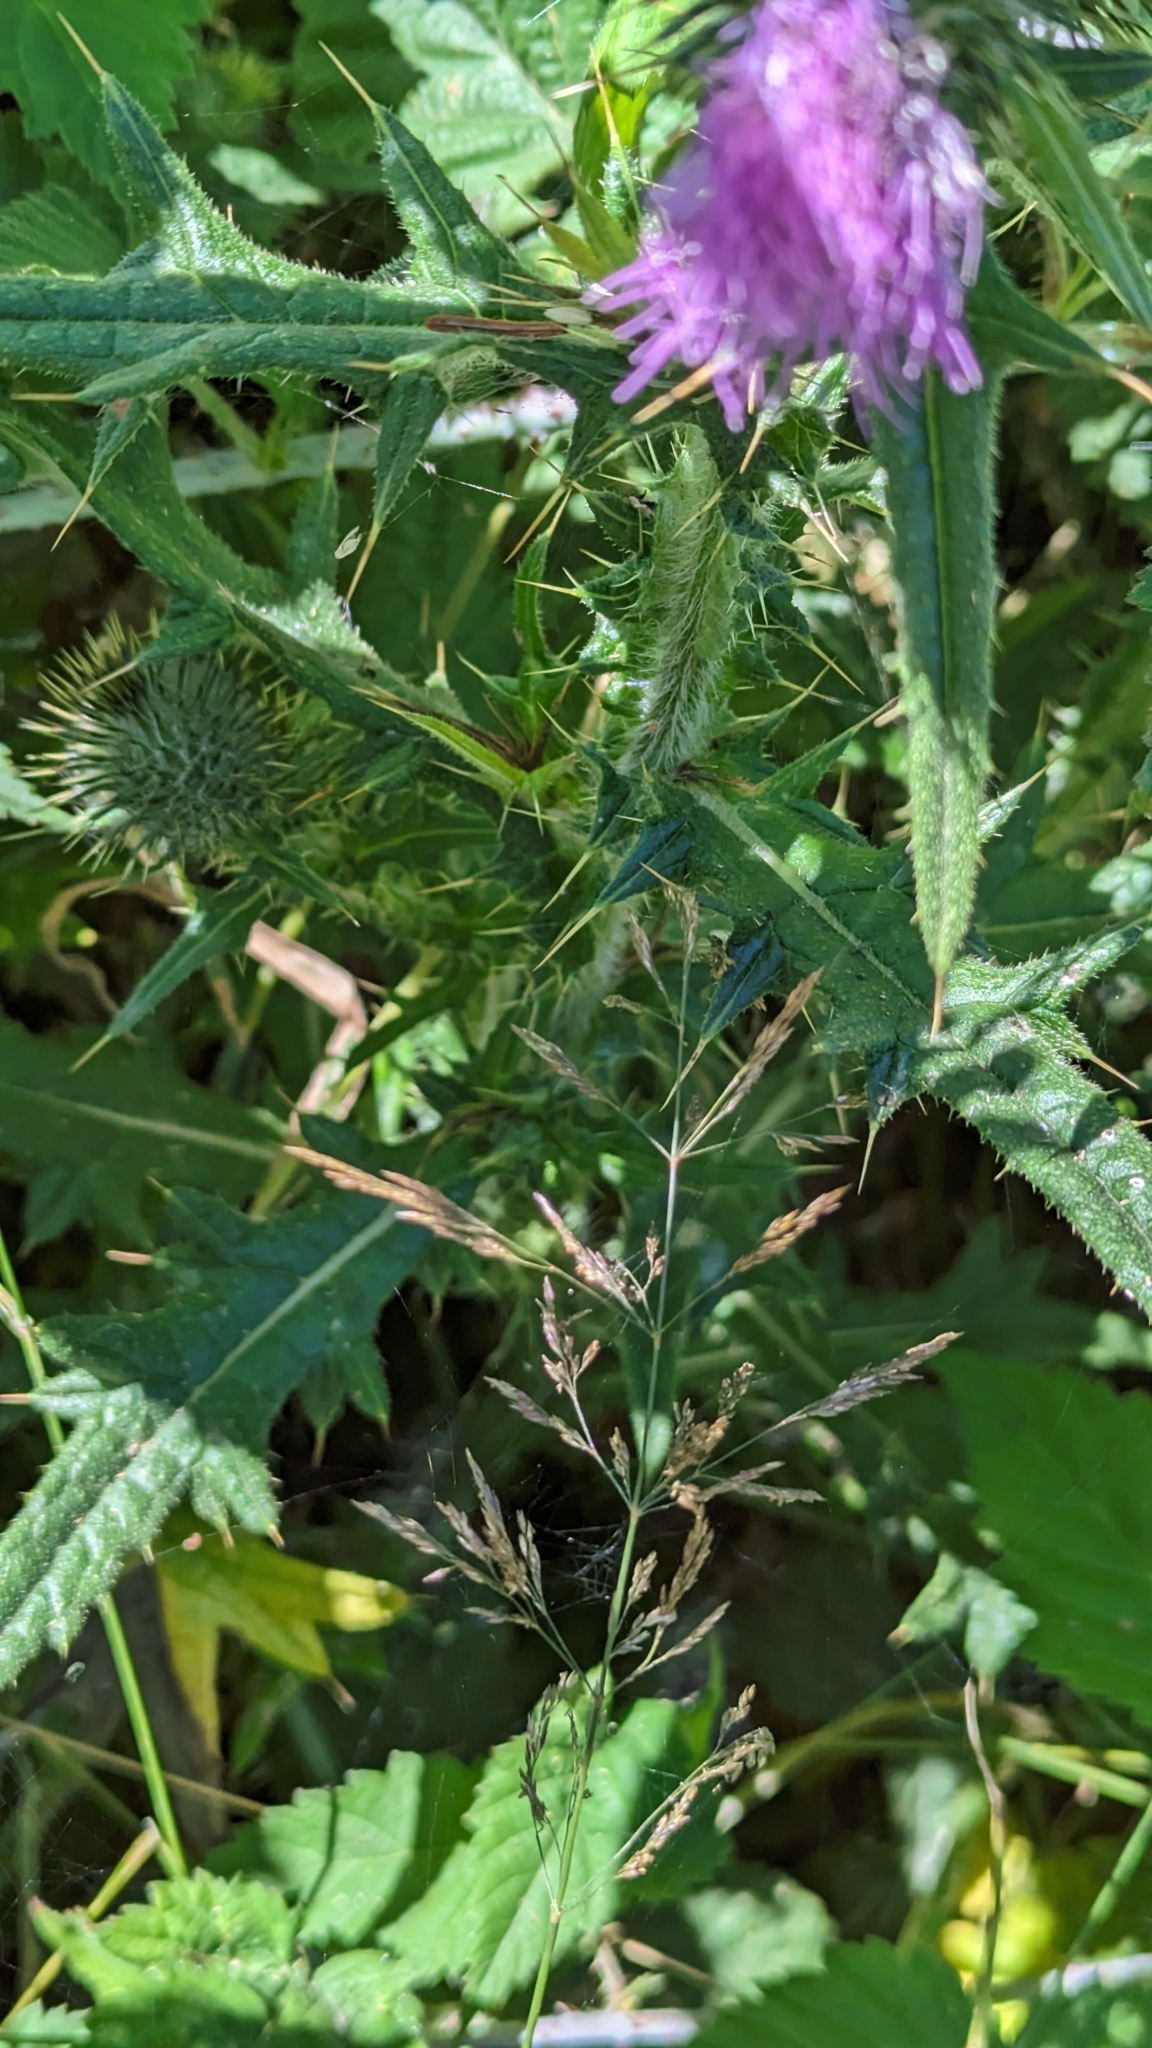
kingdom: Plantae
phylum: Tracheophyta
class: Magnoliopsida
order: Asterales
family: Asteraceae
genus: Cirsium
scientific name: Cirsium vulgare
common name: Bull thistle
